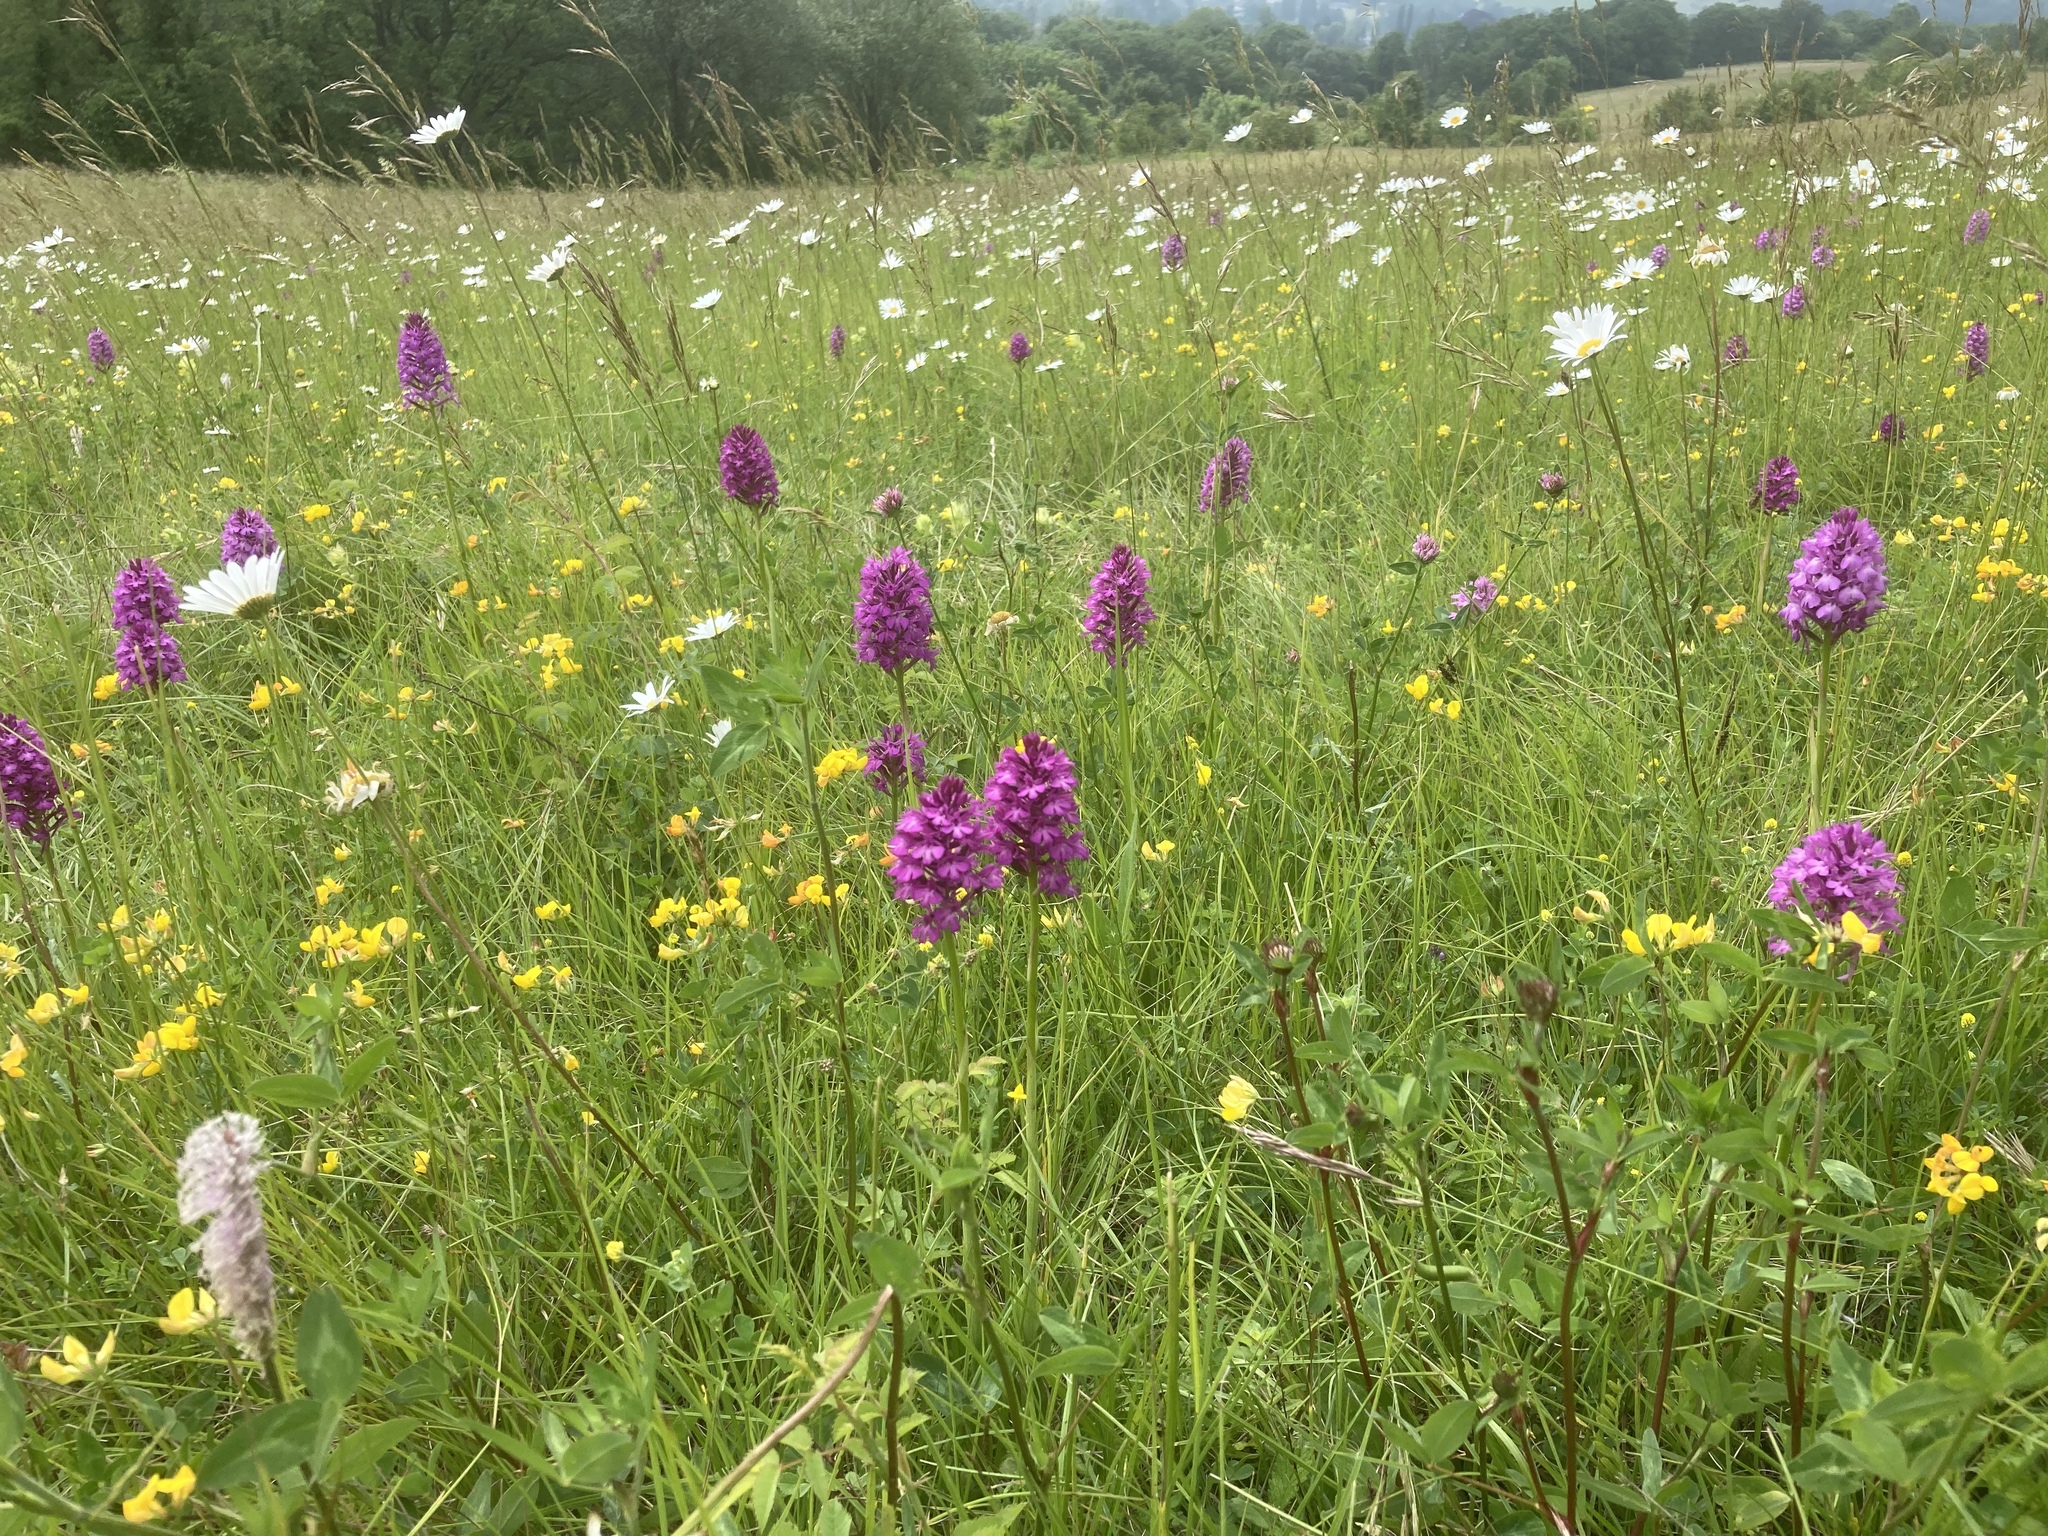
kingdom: Plantae
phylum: Tracheophyta
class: Magnoliopsida
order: Fabales
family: Fabaceae
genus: Lotus
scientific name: Lotus corniculatus
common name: Common bird's-foot-trefoil
